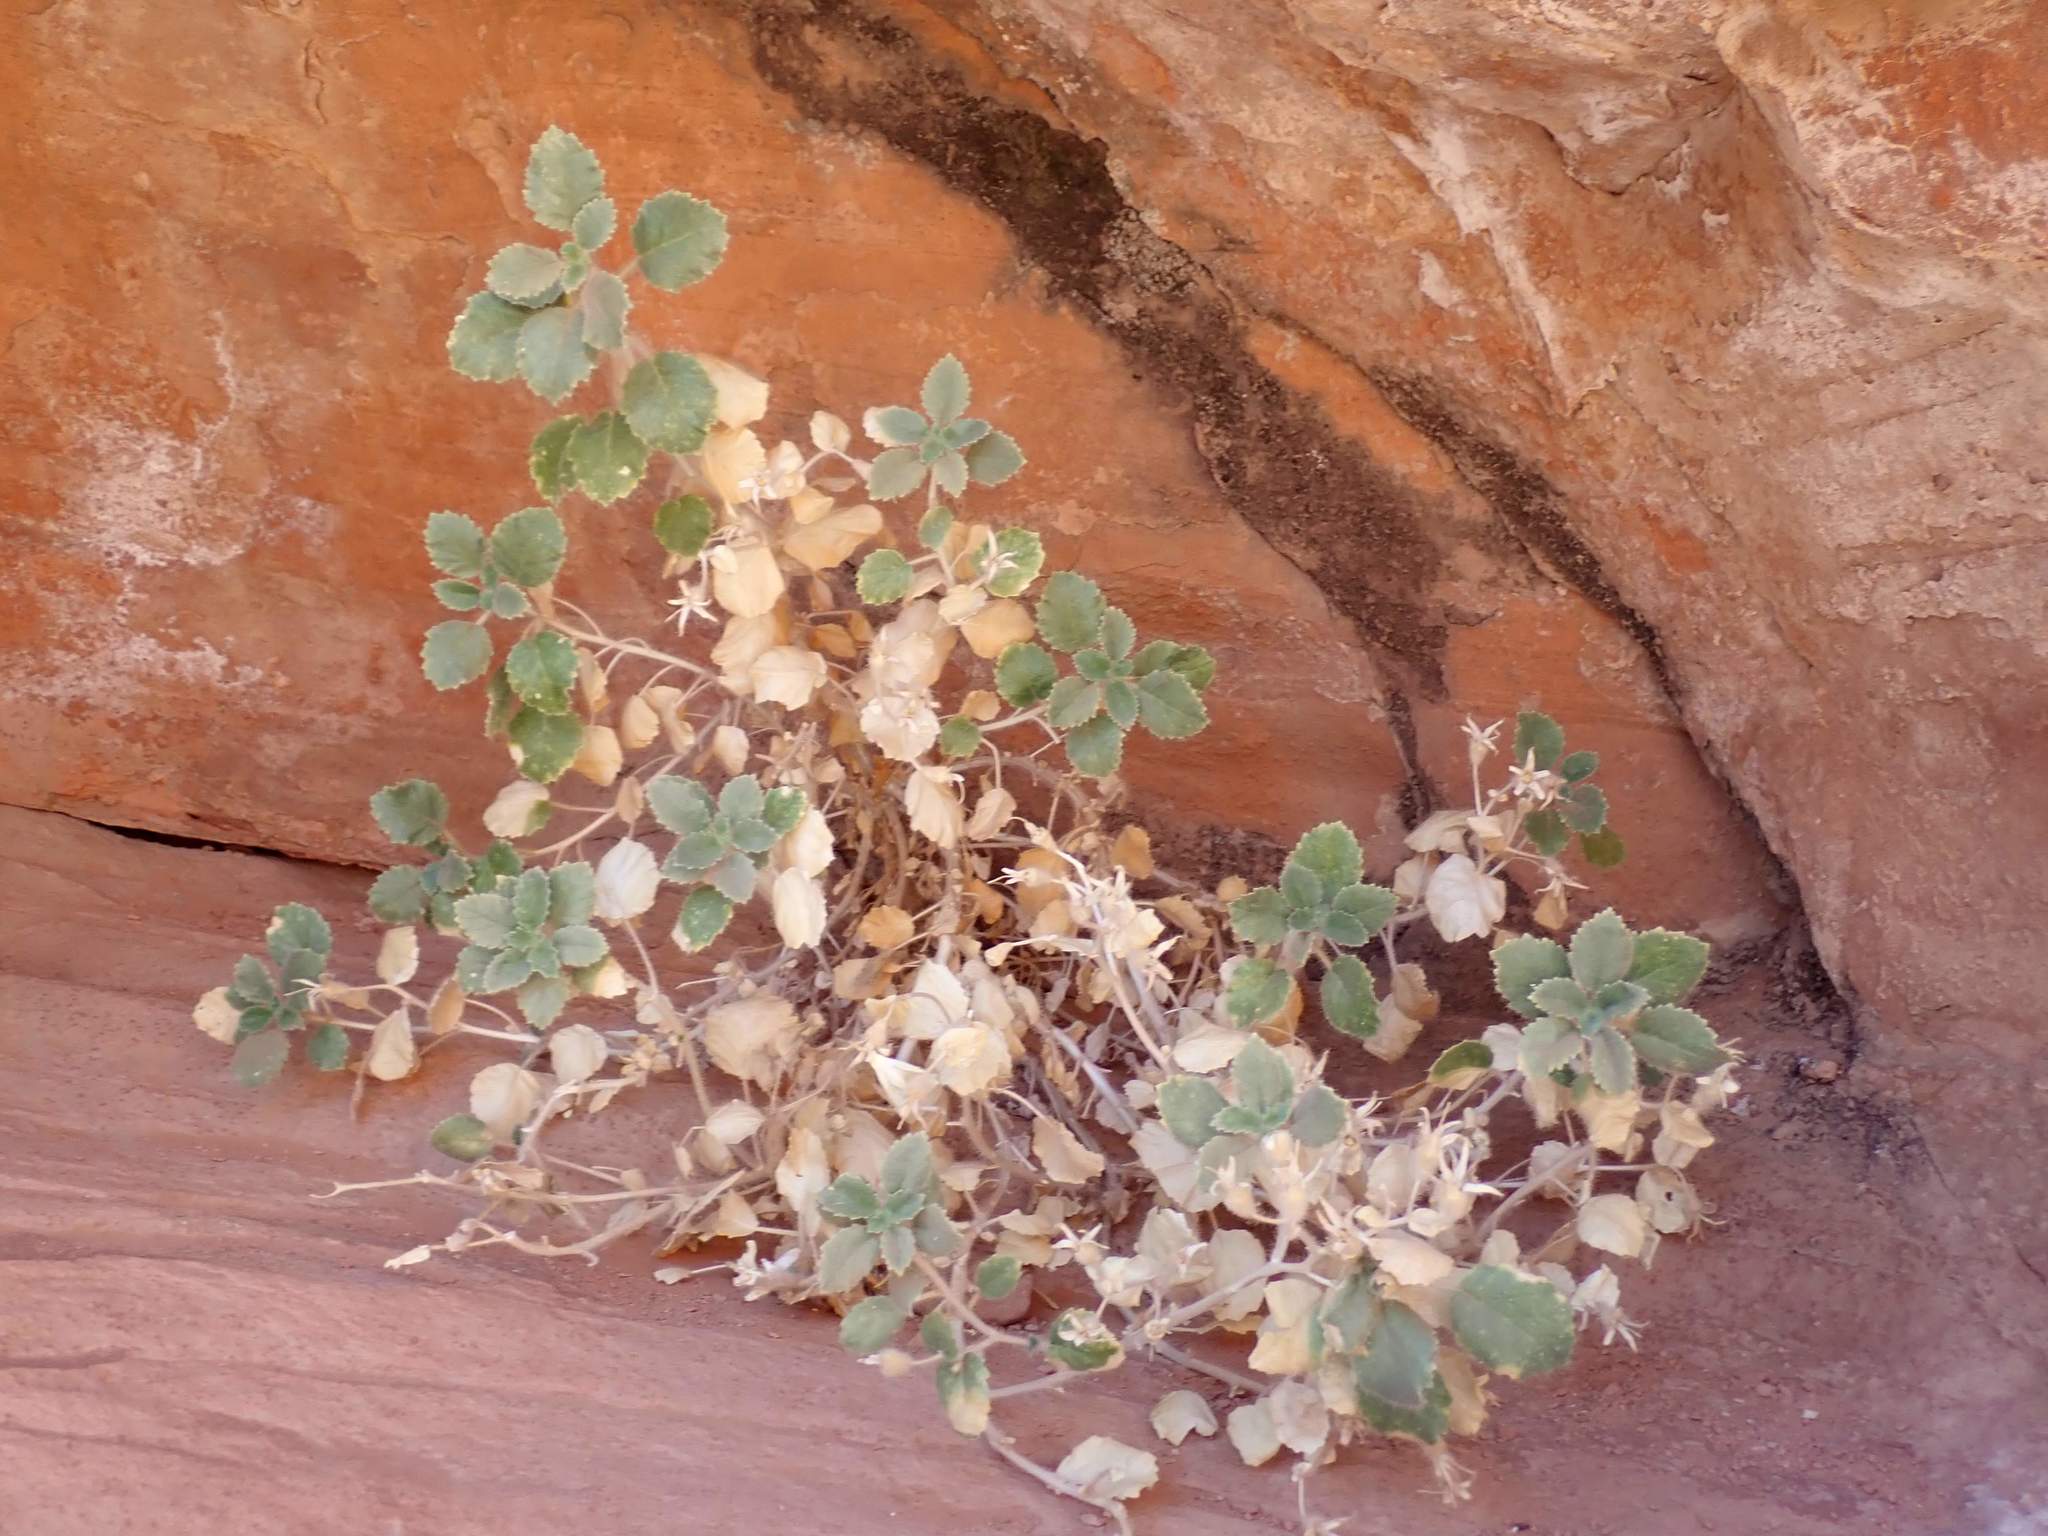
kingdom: Plantae
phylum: Tracheophyta
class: Magnoliopsida
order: Cornales
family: Loasaceae
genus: Eucnide
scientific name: Eucnide urens
